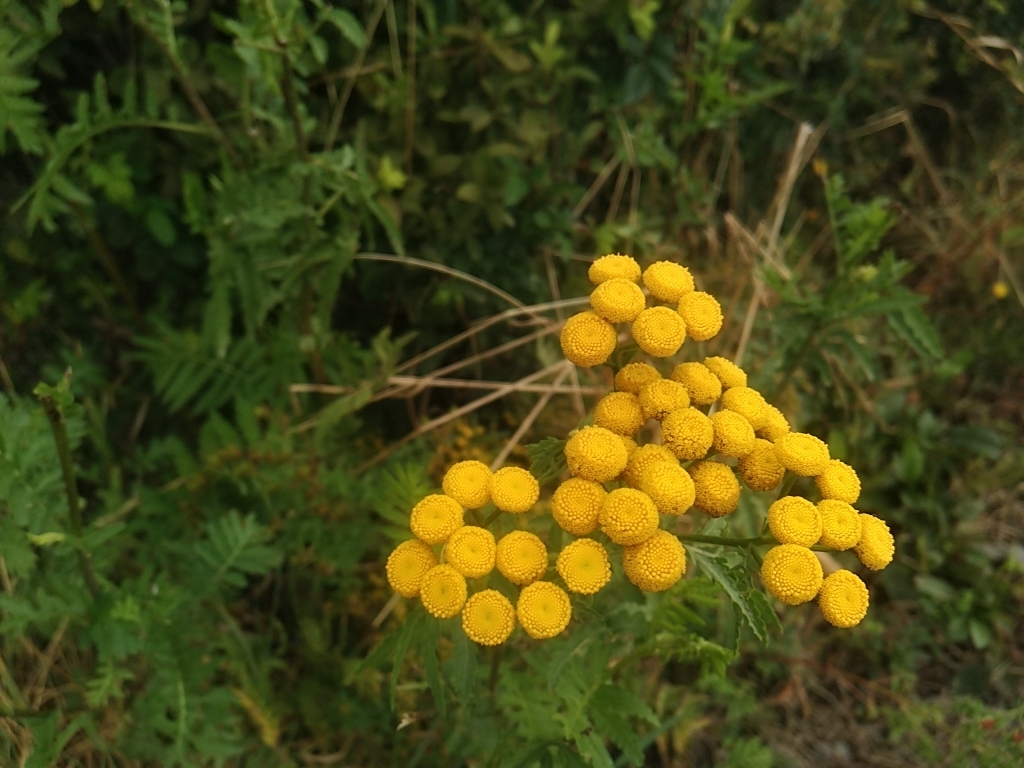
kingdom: Plantae
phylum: Tracheophyta
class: Magnoliopsida
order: Asterales
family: Asteraceae
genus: Tanacetum
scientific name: Tanacetum vulgare
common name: Common tansy
